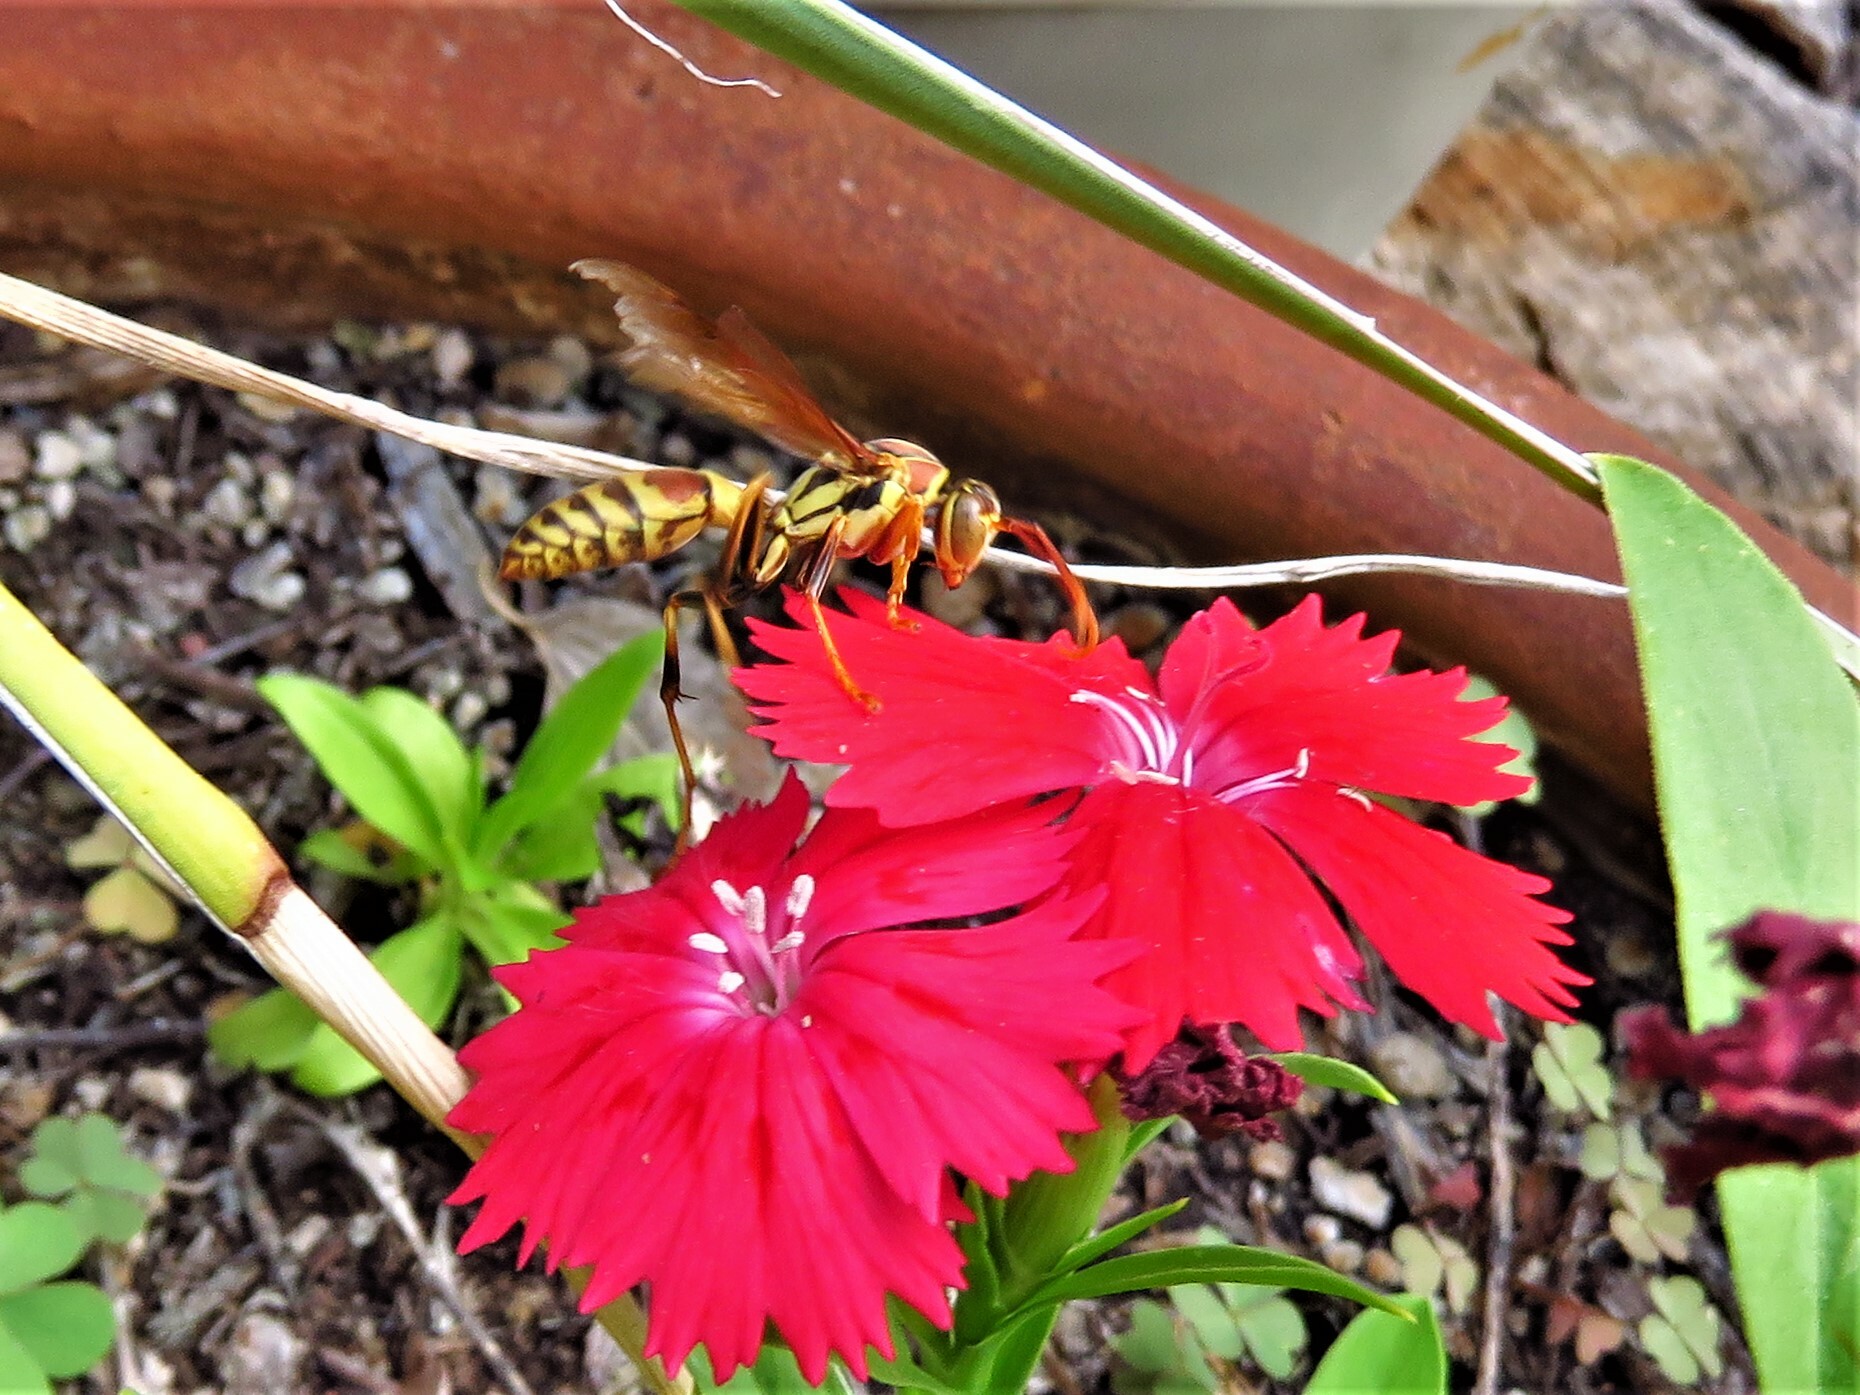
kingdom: Animalia
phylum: Arthropoda
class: Insecta
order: Hymenoptera
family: Eumenidae
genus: Polistes
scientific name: Polistes exclamans
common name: Paper wasp
